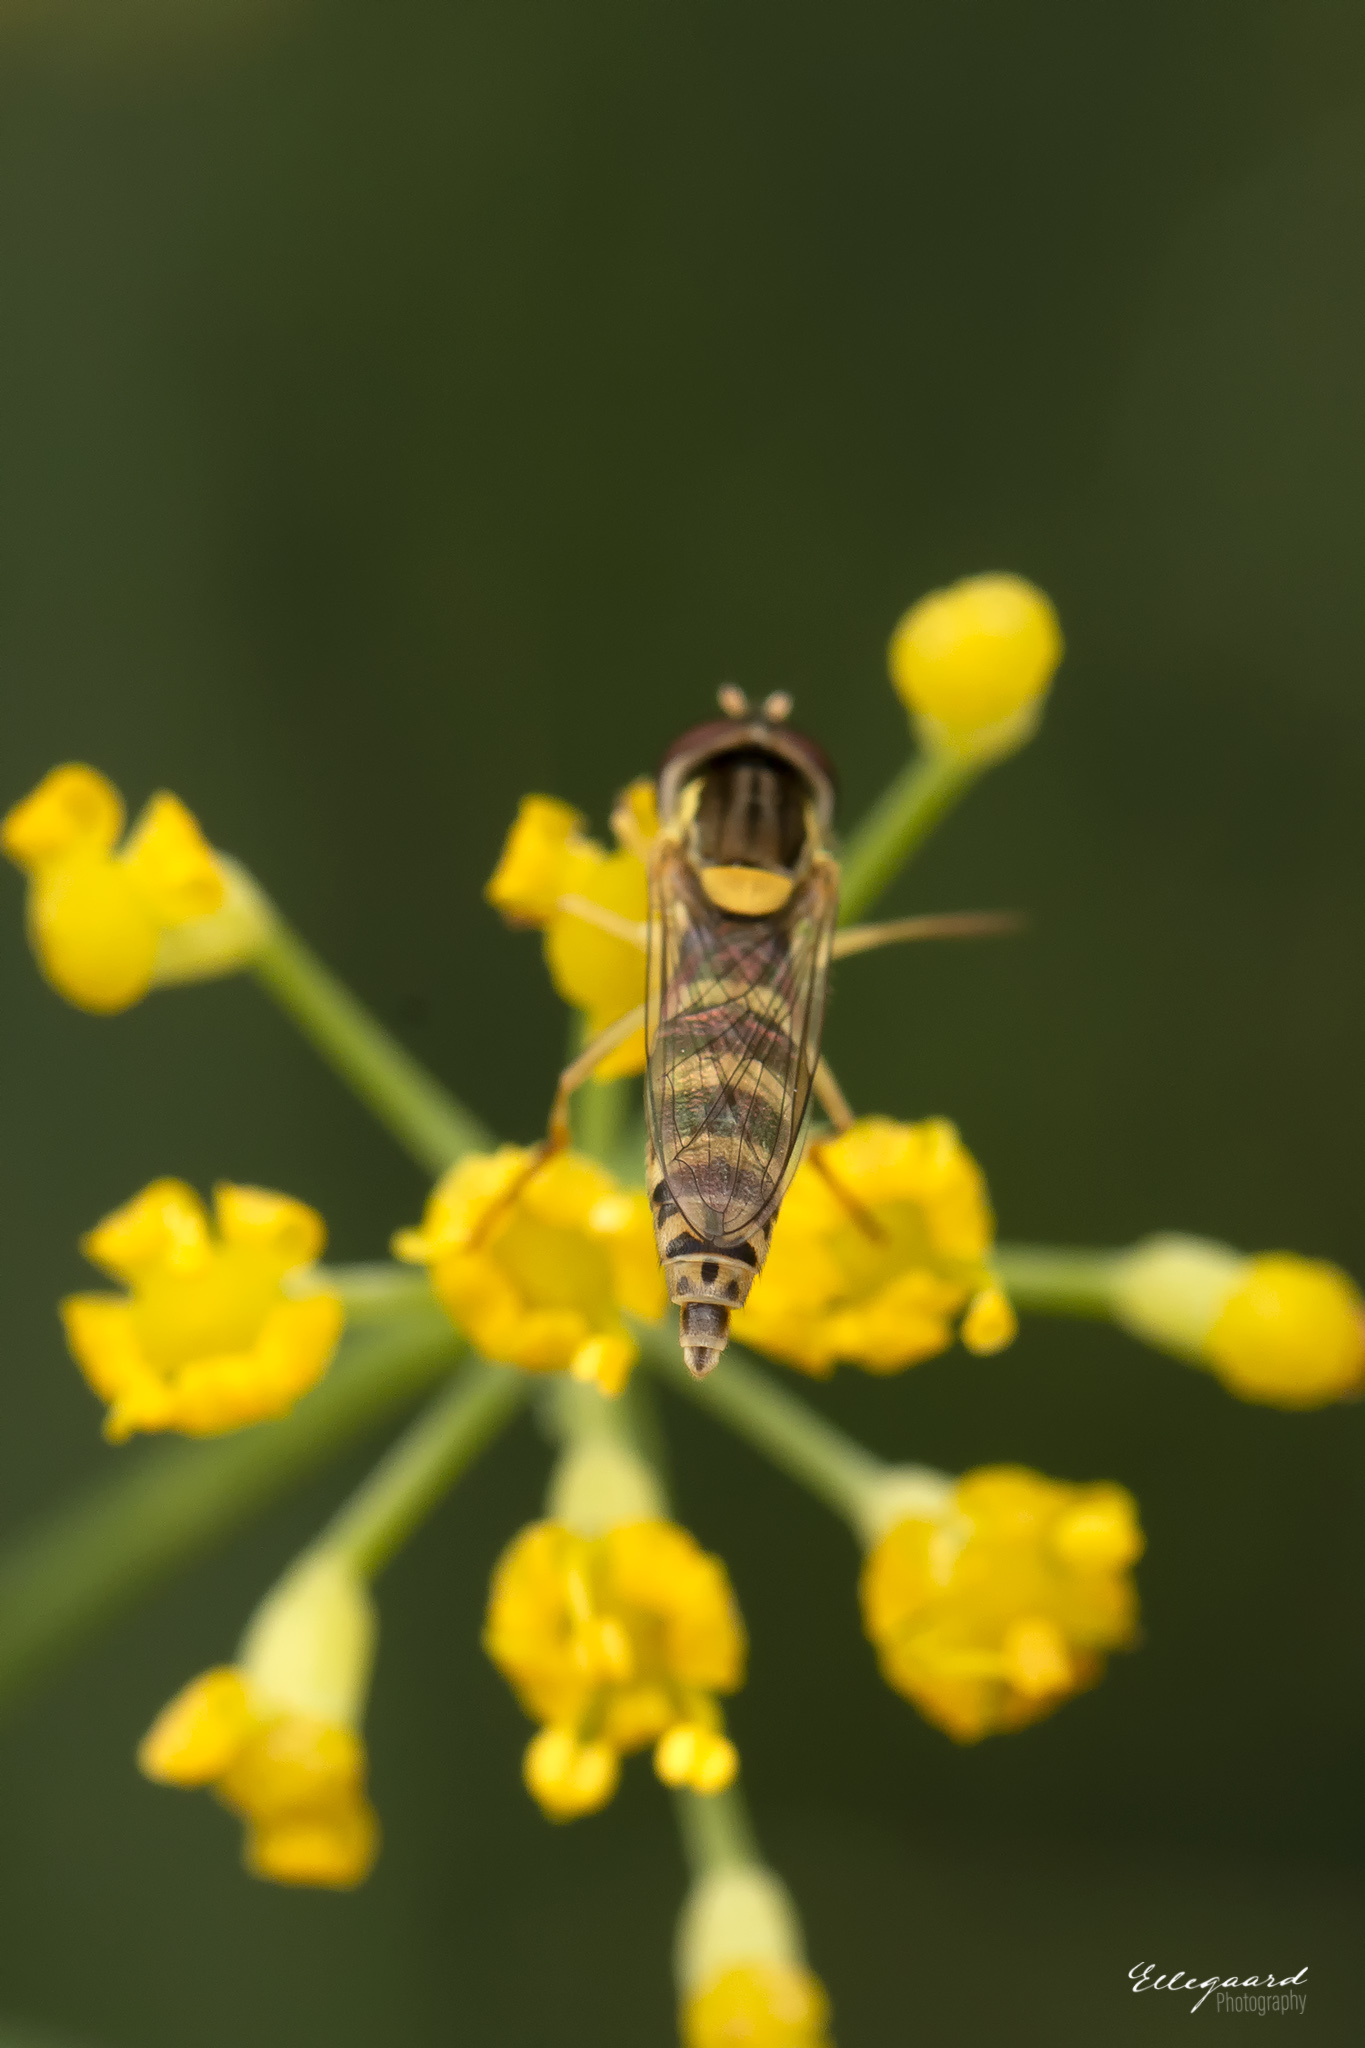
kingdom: Animalia
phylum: Arthropoda
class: Insecta
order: Diptera
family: Syrphidae
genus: Sphaerophoria
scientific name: Sphaerophoria
